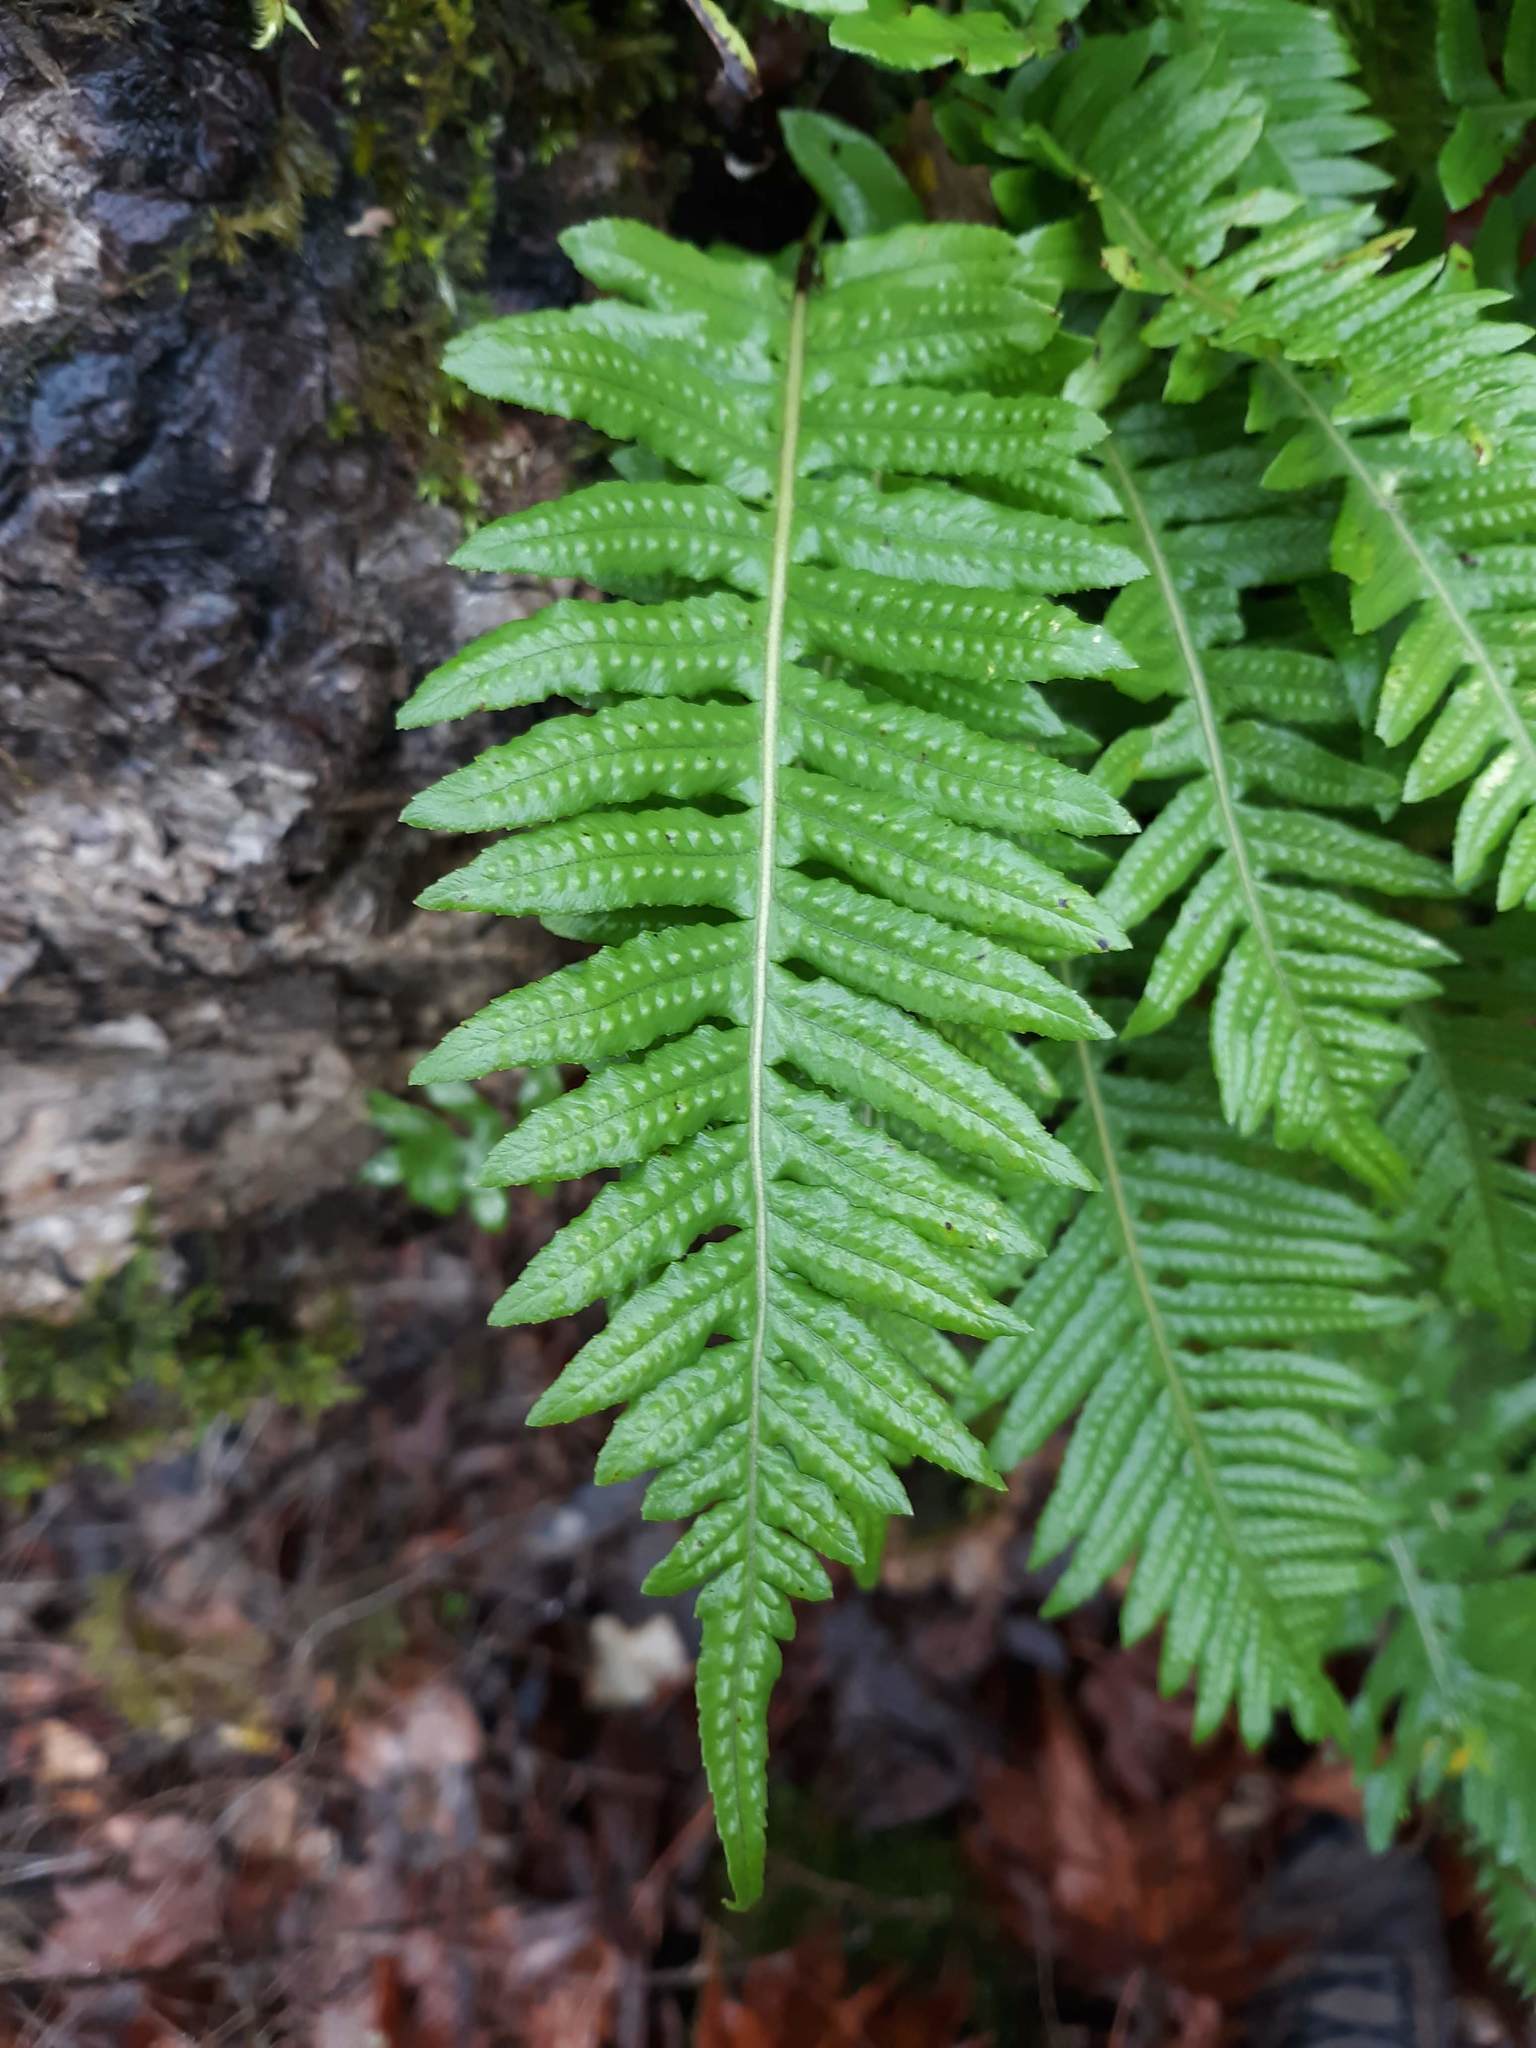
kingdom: Plantae
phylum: Tracheophyta
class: Polypodiopsida
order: Polypodiales
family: Polypodiaceae
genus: Polypodium
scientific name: Polypodium glycyrrhiza
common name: Licorice fern
